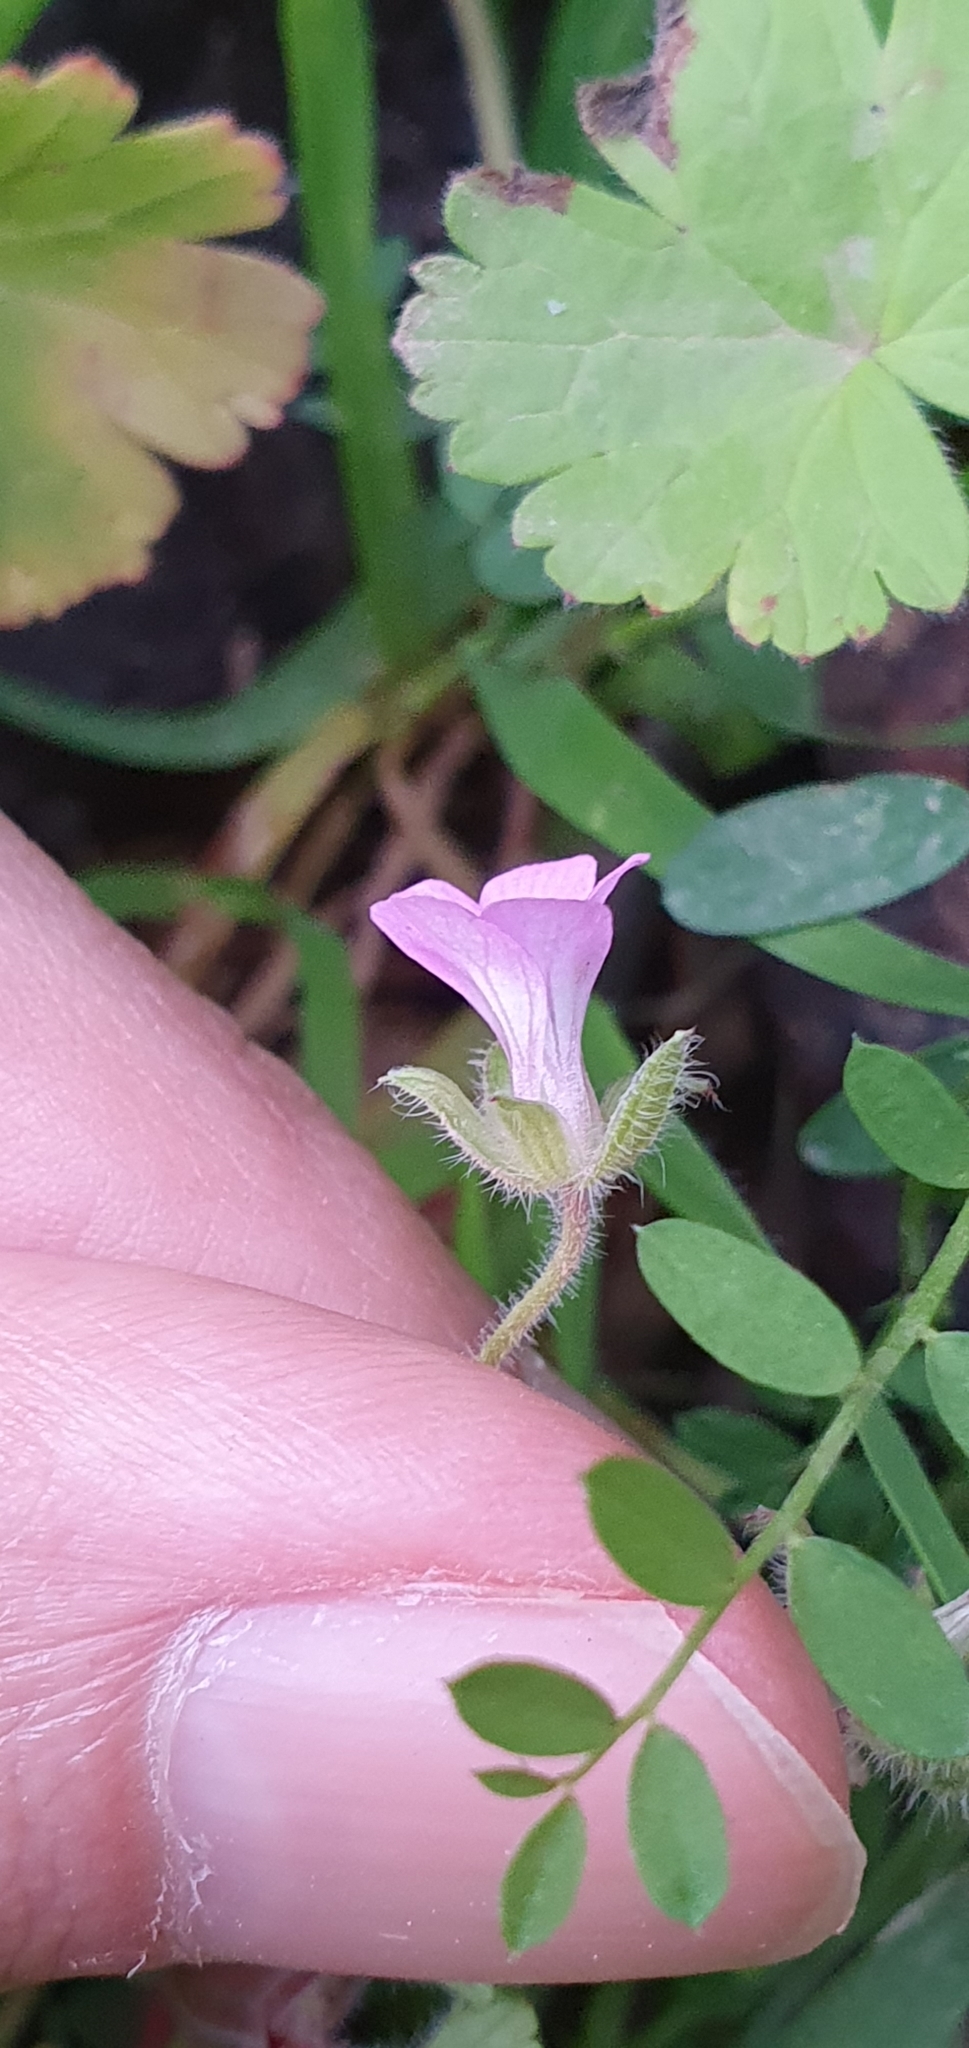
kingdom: Plantae
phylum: Tracheophyta
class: Magnoliopsida
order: Geraniales
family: Geraniaceae
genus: Geranium
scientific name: Geranium rotundifolium
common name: Round-leaved crane's-bill
